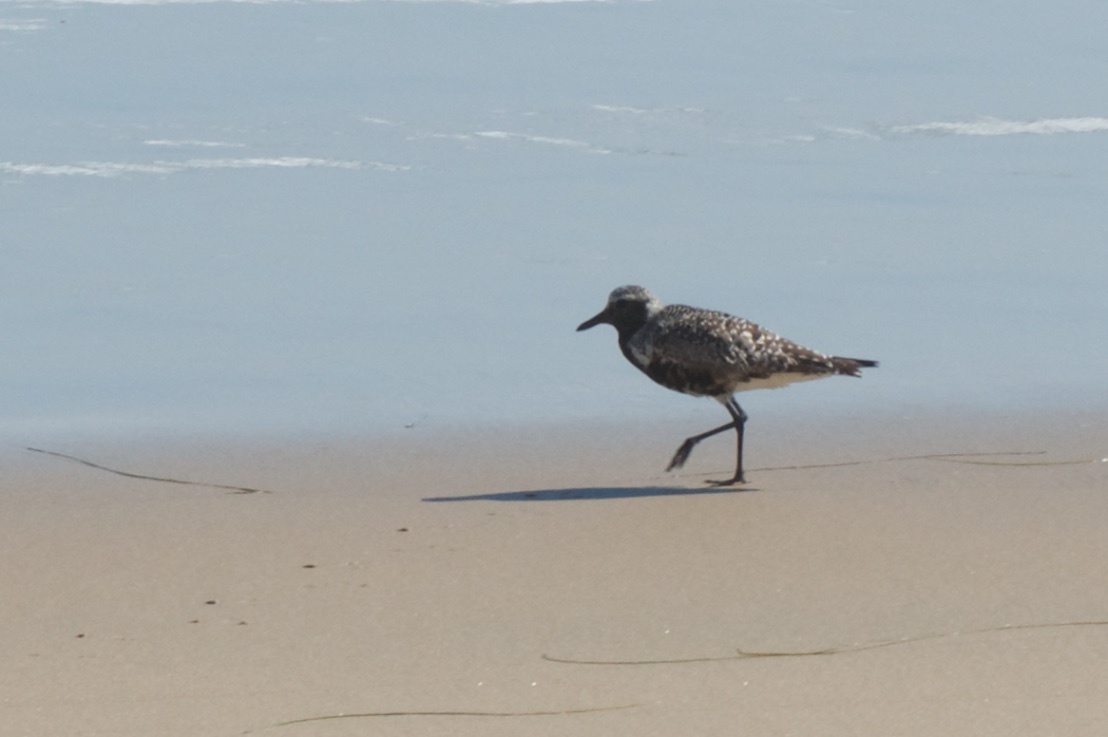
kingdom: Animalia
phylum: Chordata
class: Aves
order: Charadriiformes
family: Charadriidae
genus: Pluvialis
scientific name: Pluvialis squatarola
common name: Grey plover
